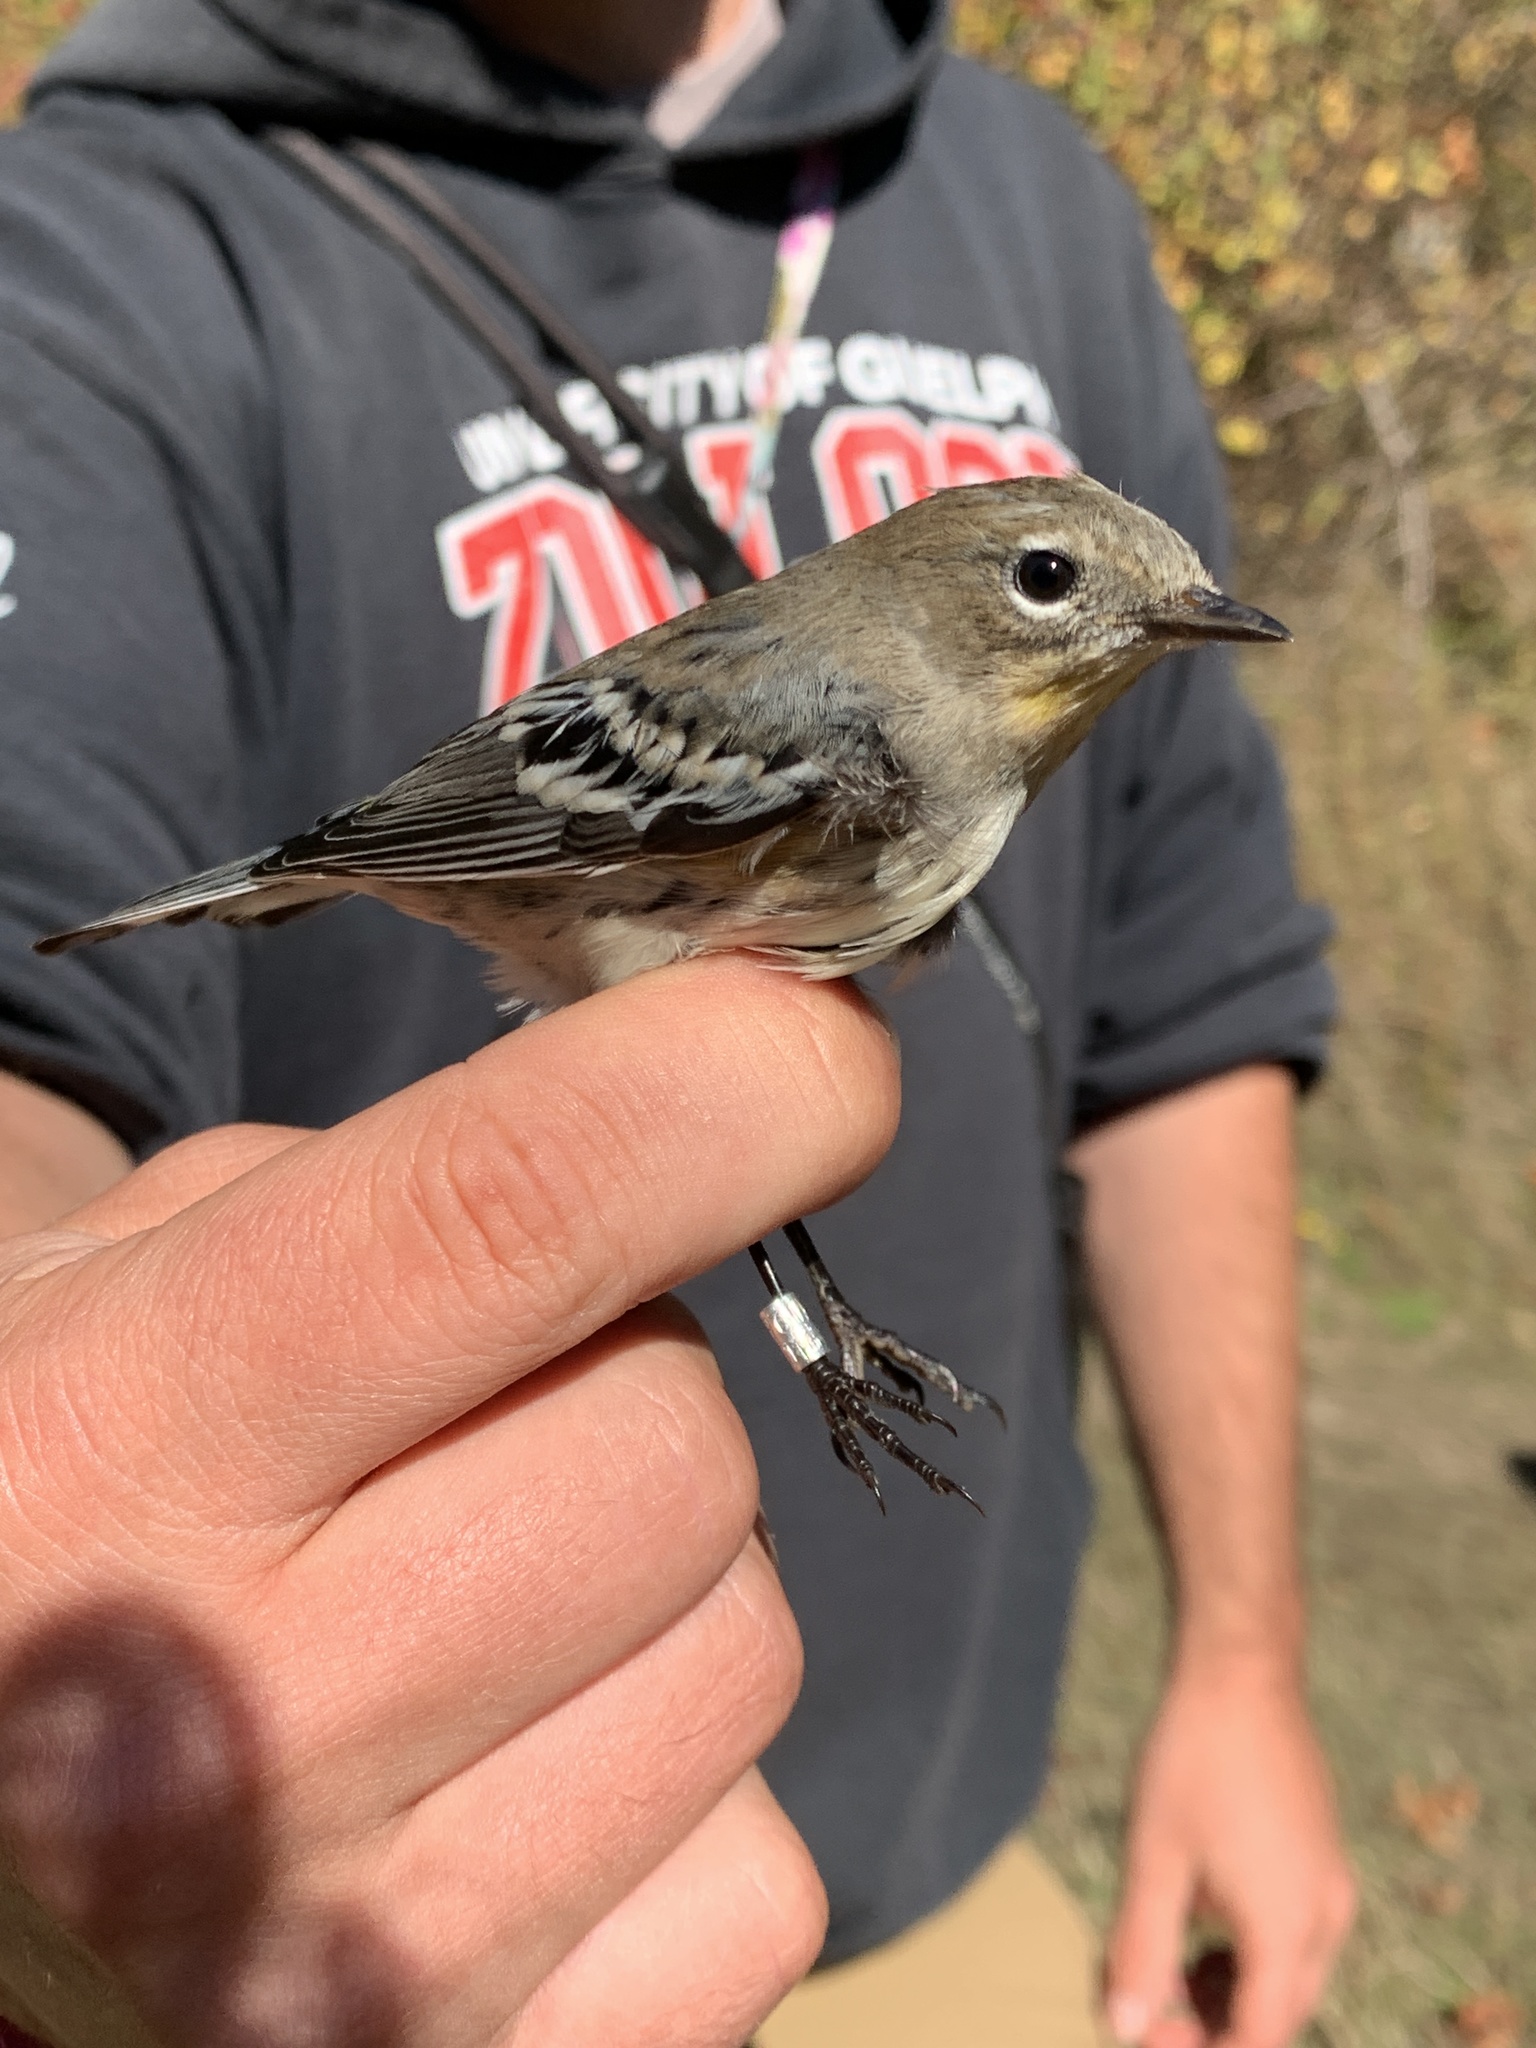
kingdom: Animalia
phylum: Chordata
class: Aves
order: Passeriformes
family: Parulidae
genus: Setophaga
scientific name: Setophaga auduboni
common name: Audubon's warbler
